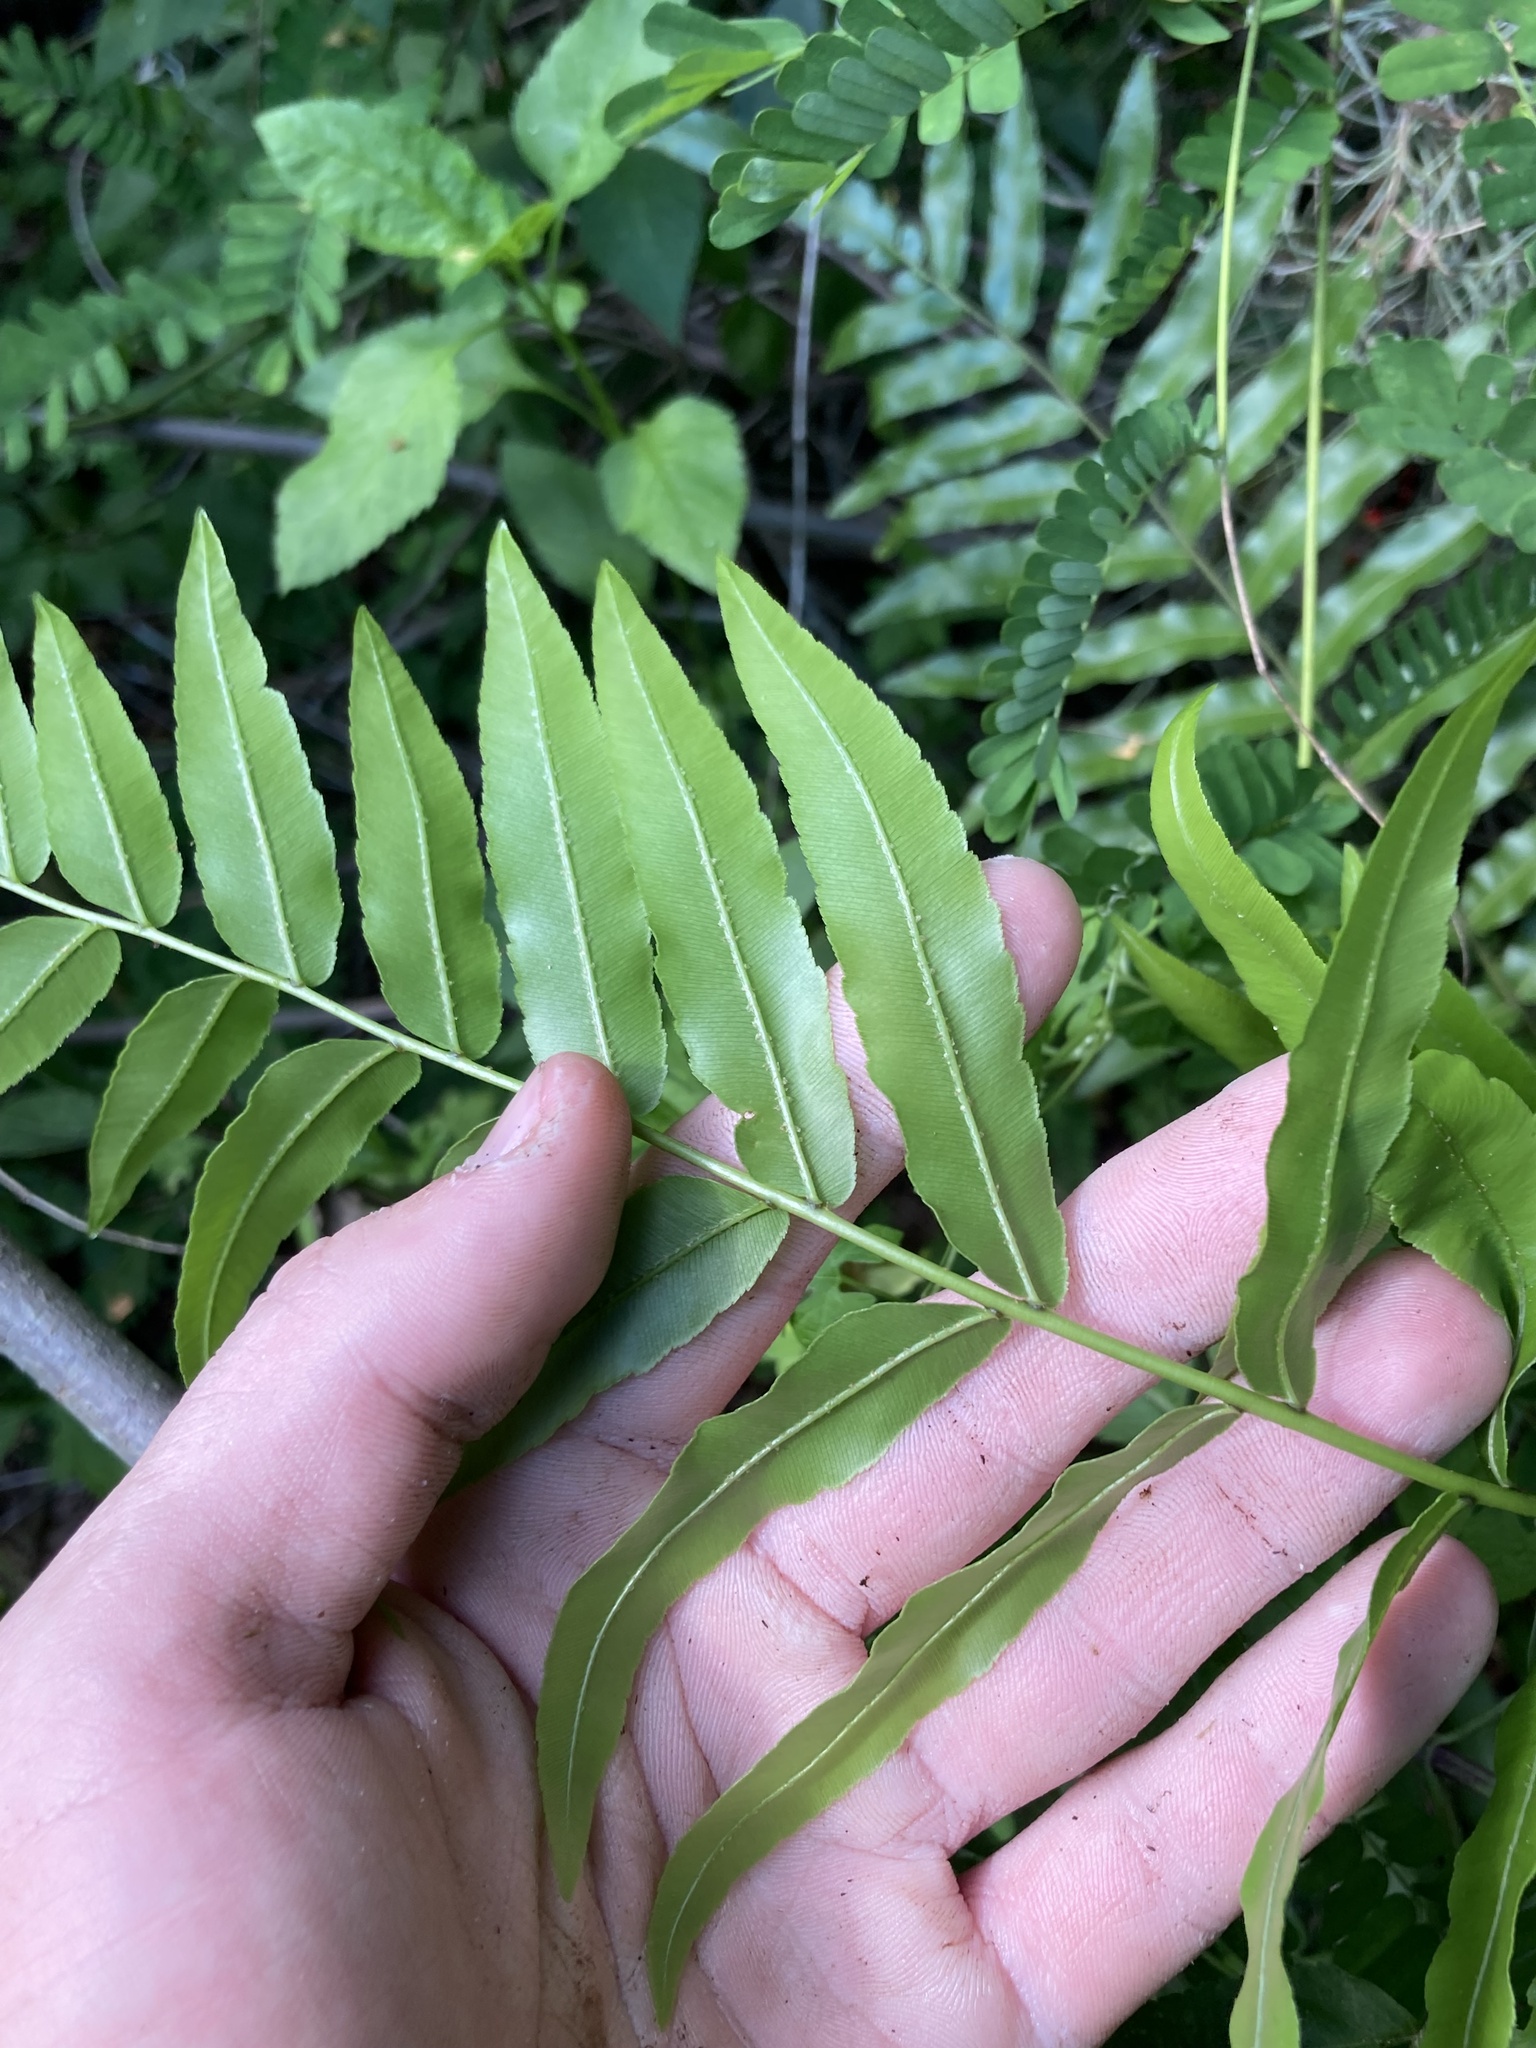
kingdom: Plantae
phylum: Tracheophyta
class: Polypodiopsida
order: Polypodiales
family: Blechnaceae
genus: Telmatoblechnum
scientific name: Telmatoblechnum serrulatum
